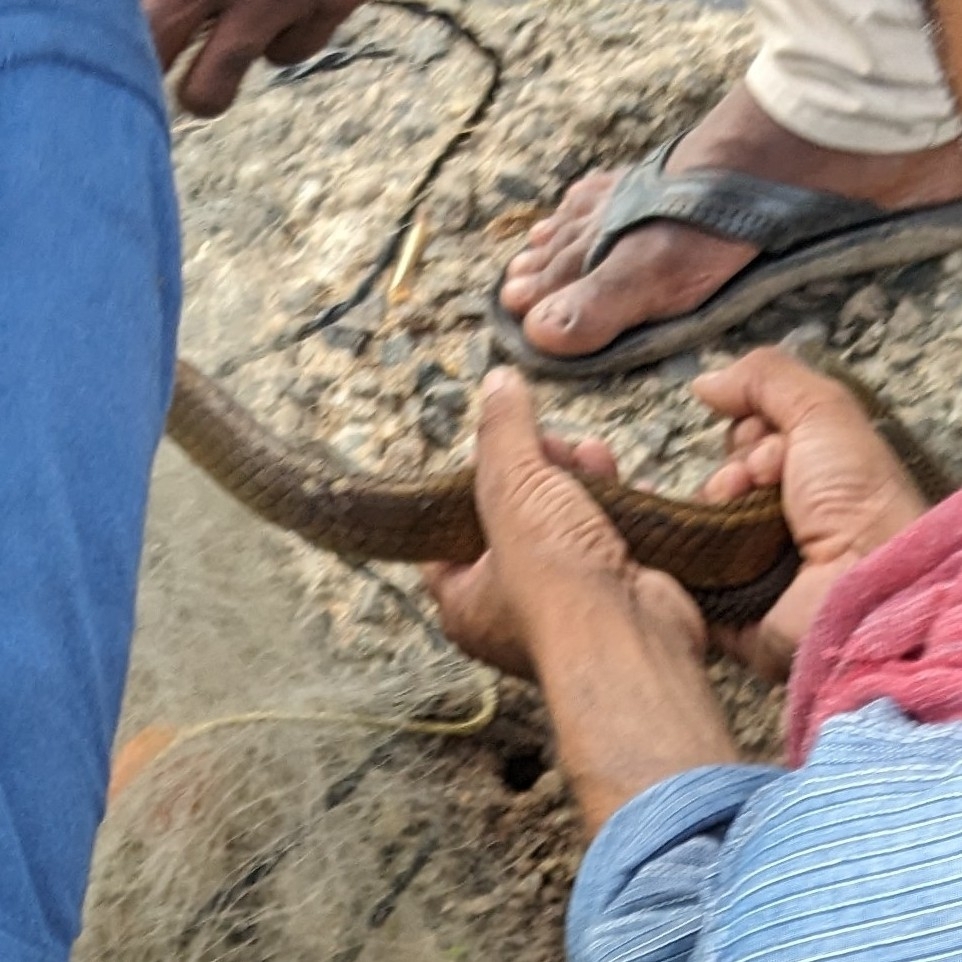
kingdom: Animalia
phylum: Chordata
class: Squamata
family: Colubridae
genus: Ptyas
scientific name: Ptyas mucosa
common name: Oriental ratsnake
